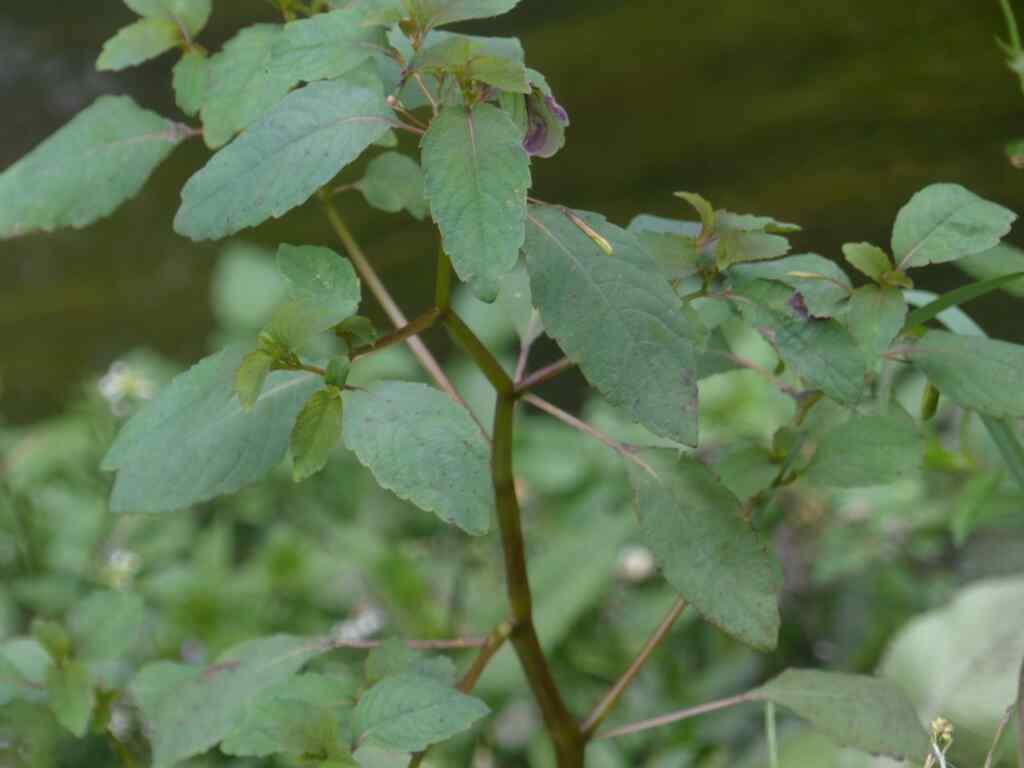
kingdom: Plantae
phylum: Tracheophyta
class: Magnoliopsida
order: Ericales
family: Balsaminaceae
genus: Impatiens
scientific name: Impatiens capensis
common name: Orange balsam
